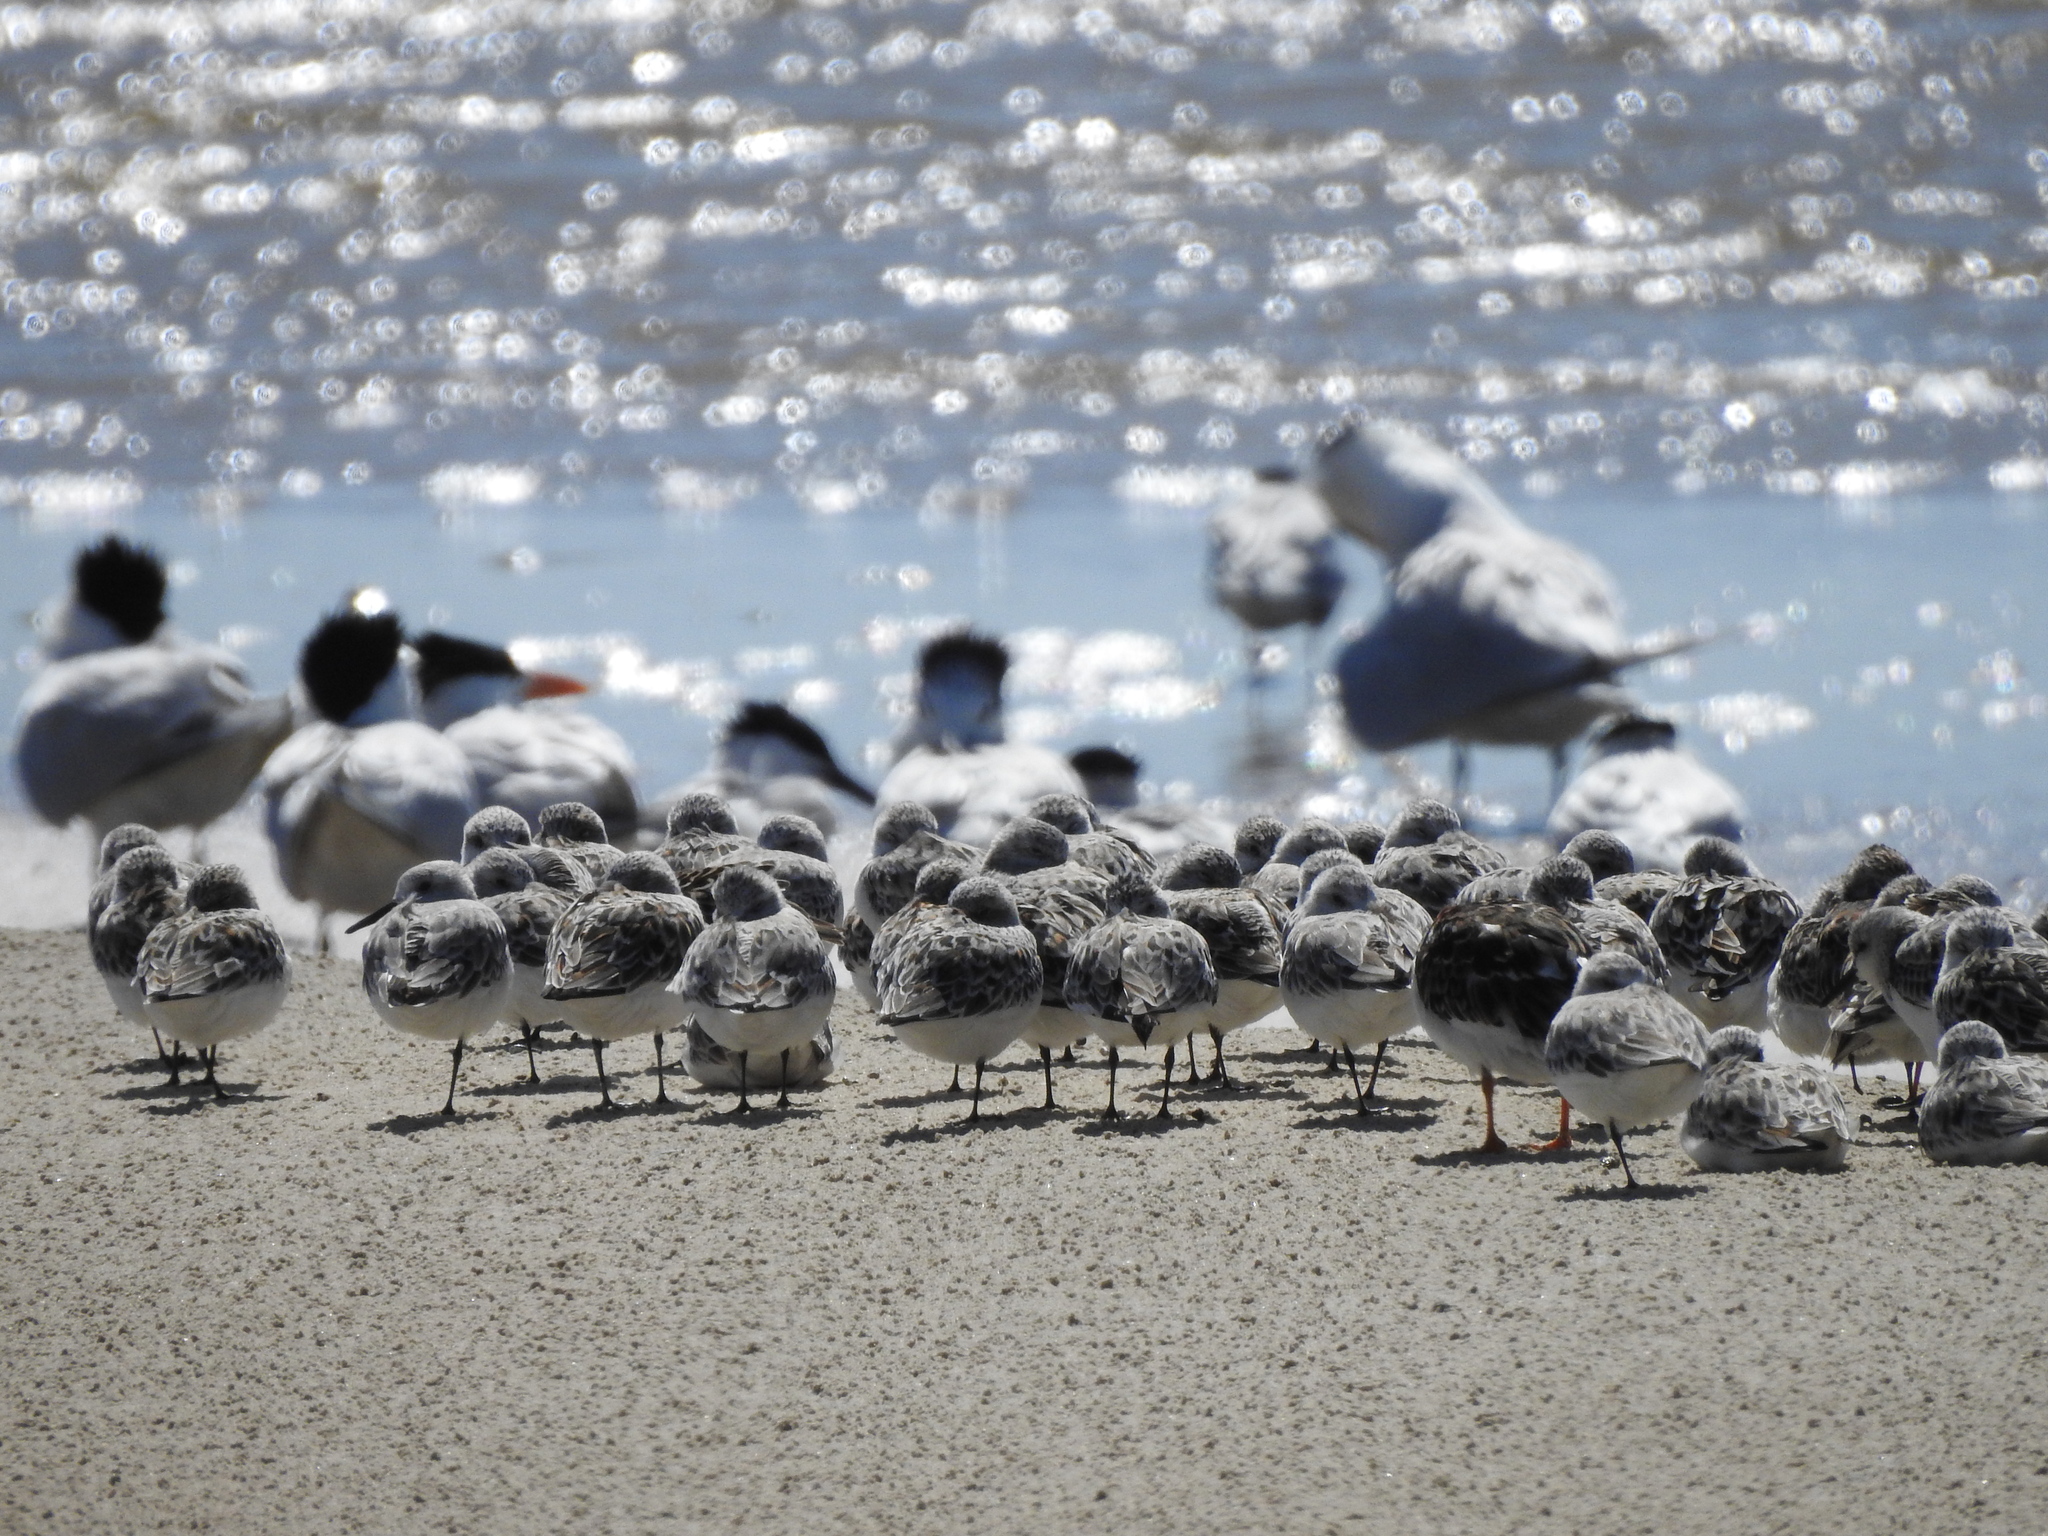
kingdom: Animalia
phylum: Chordata
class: Aves
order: Charadriiformes
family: Scolopacidae
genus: Calidris
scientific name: Calidris alba
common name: Sanderling
